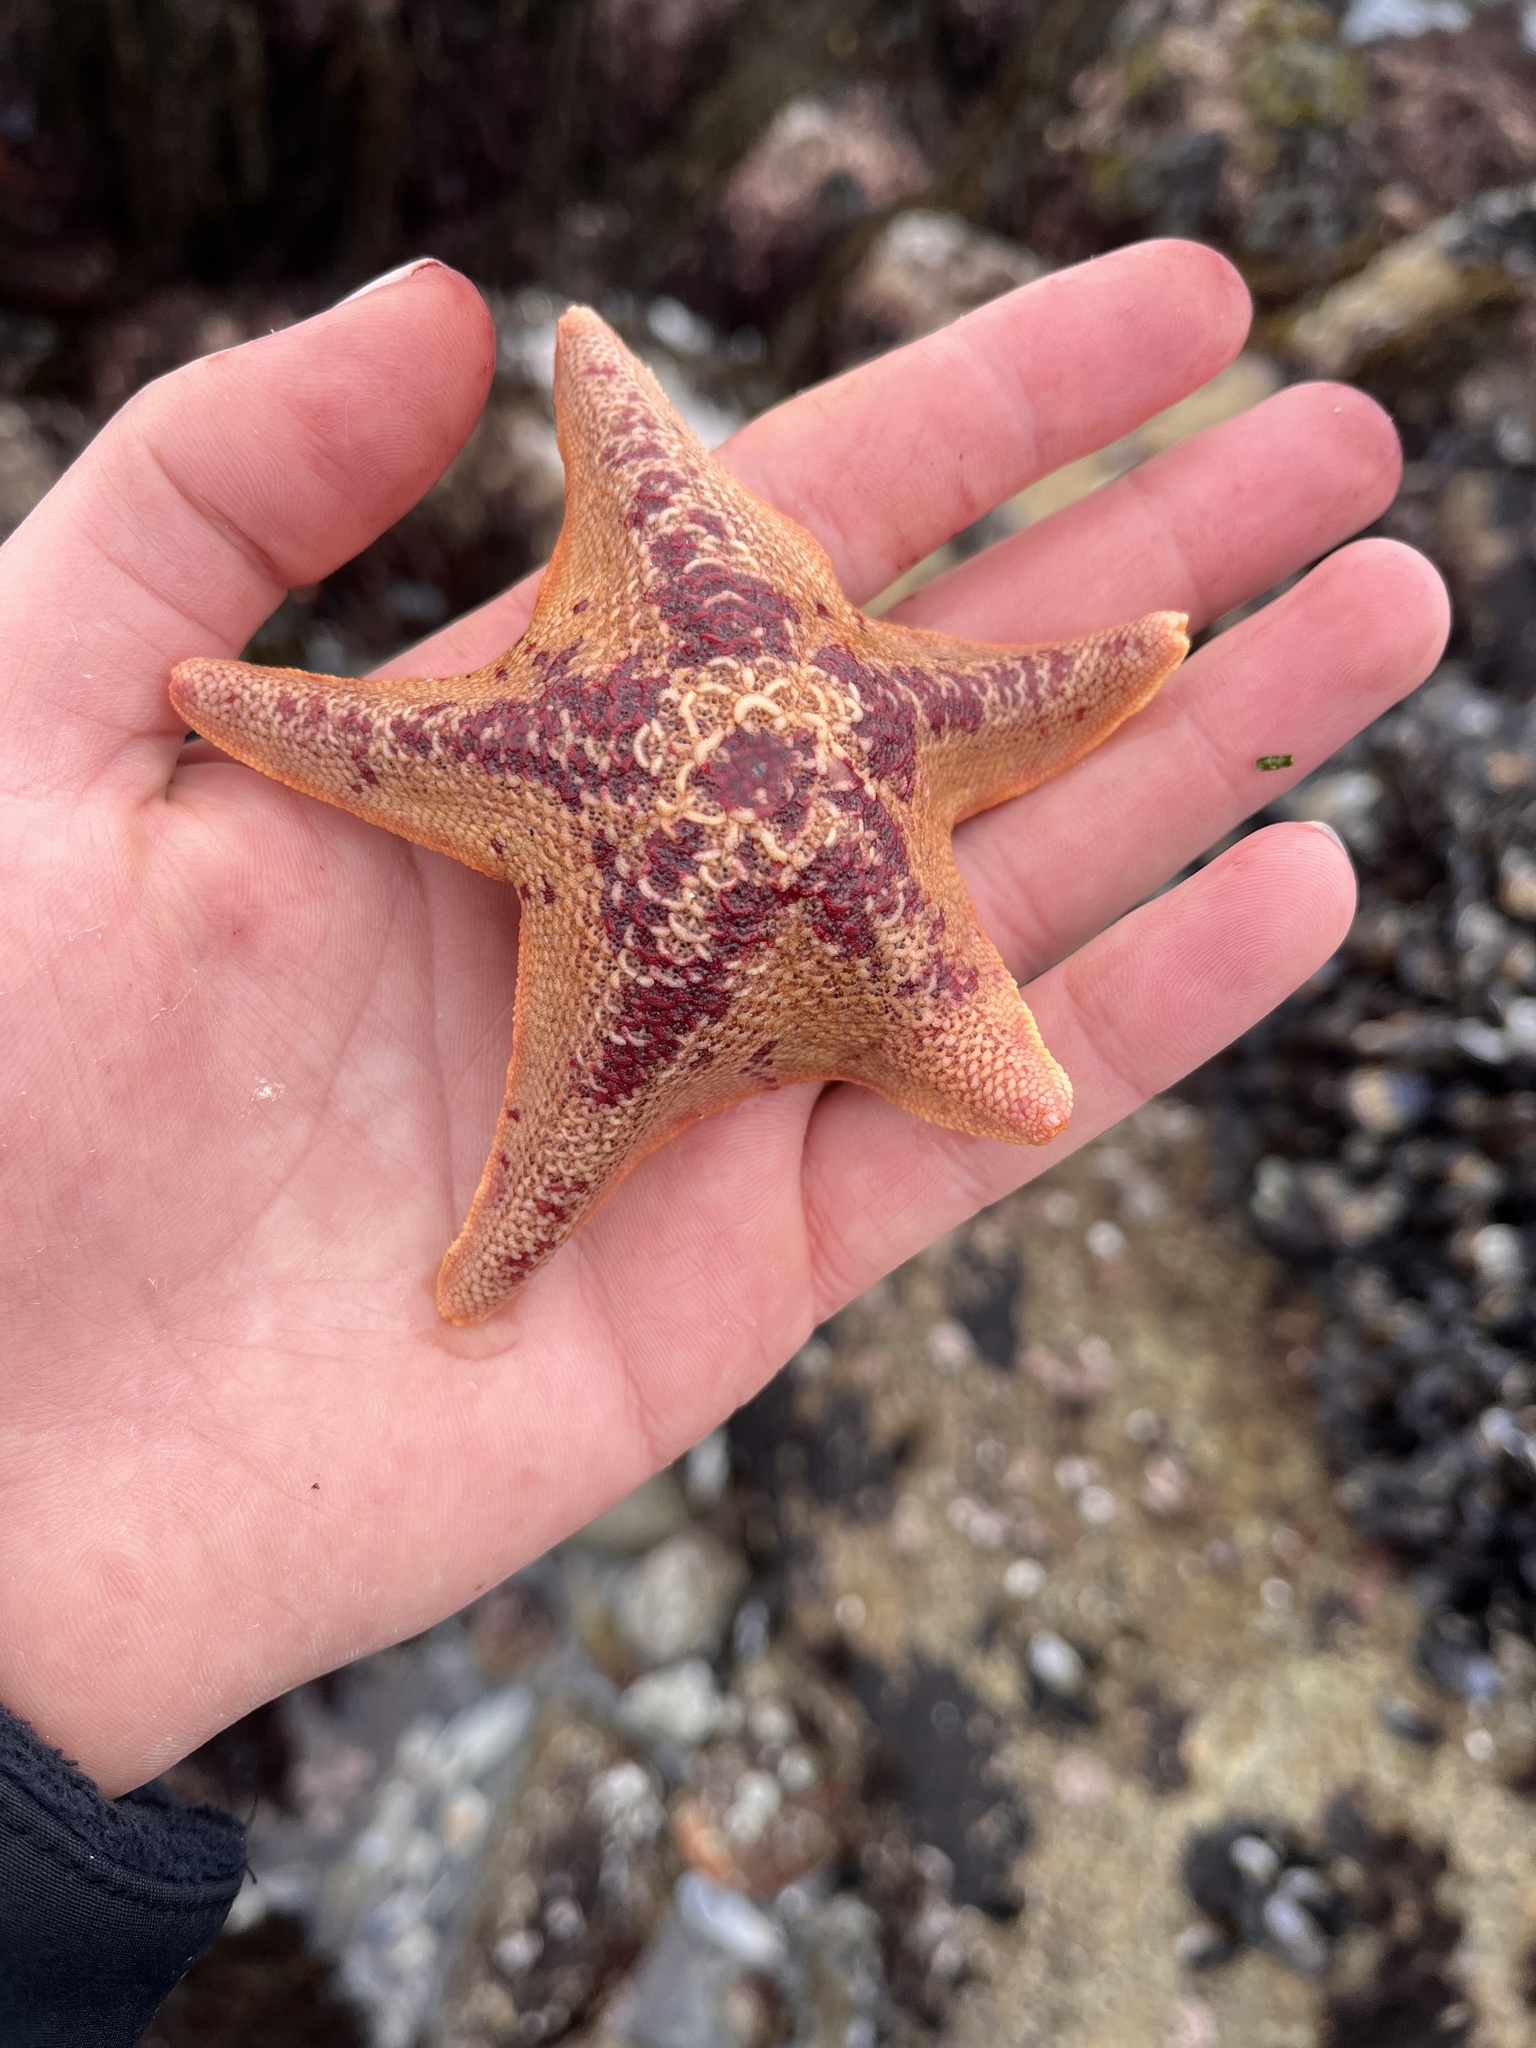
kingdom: Animalia
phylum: Echinodermata
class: Asteroidea
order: Valvatida
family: Asterinidae
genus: Patiria
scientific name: Patiria miniata
